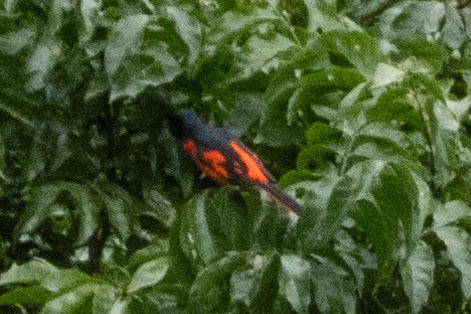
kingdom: Animalia
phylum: Chordata
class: Aves
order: Passeriformes
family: Campephagidae
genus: Pericrocotus
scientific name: Pericrocotus speciosus
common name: Scarlet minivet
